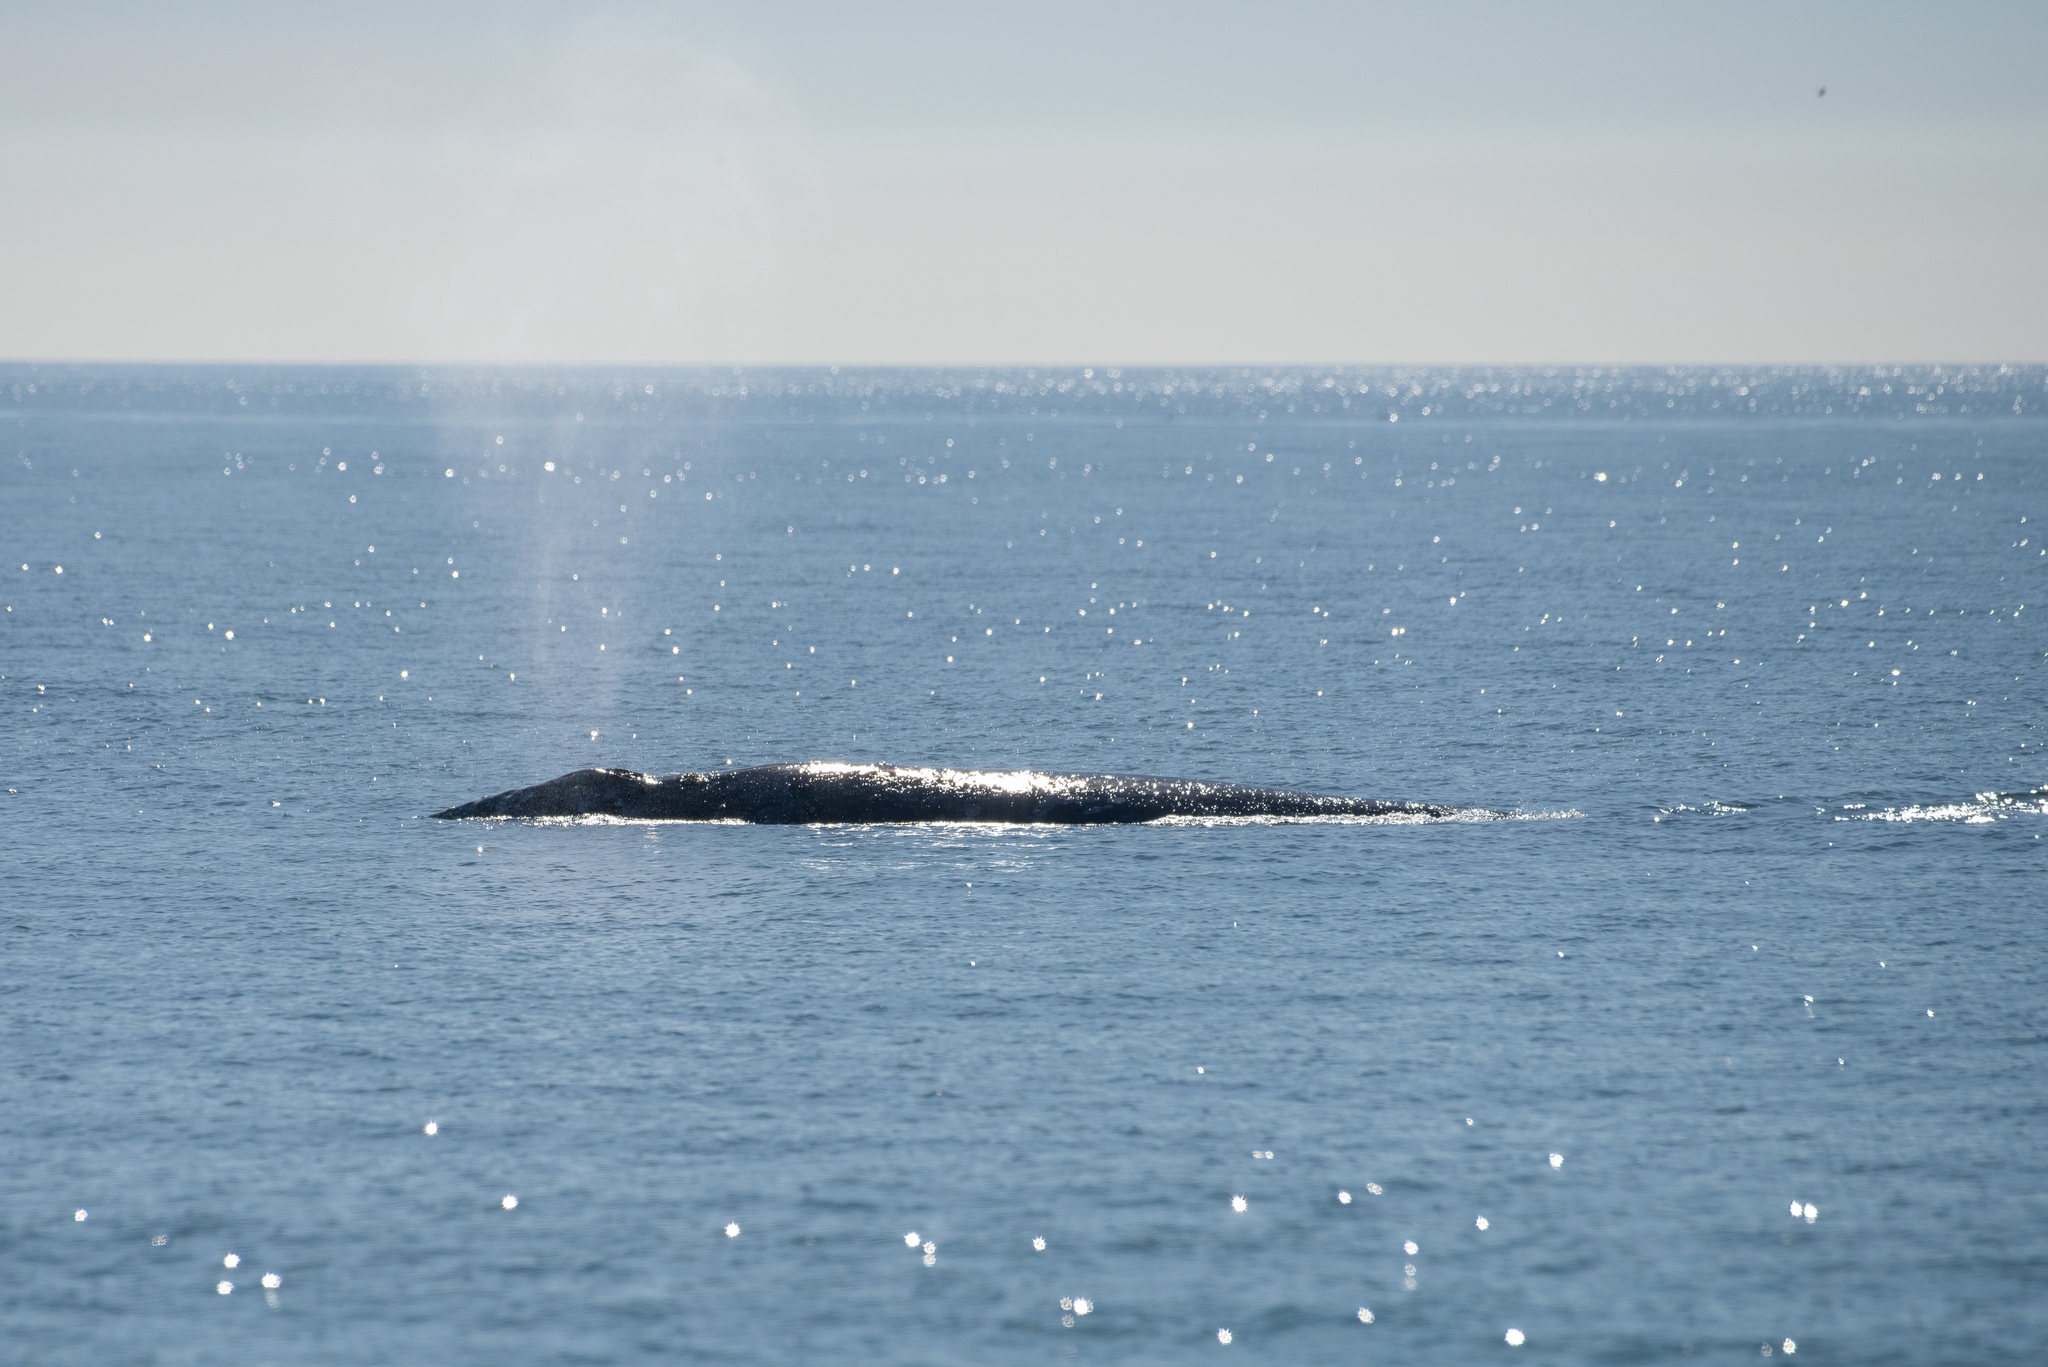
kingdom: Animalia
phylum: Chordata
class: Mammalia
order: Cetacea
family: Eschrichtiidae
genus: Eschrichtius
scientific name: Eschrichtius robustus
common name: Gray whale
